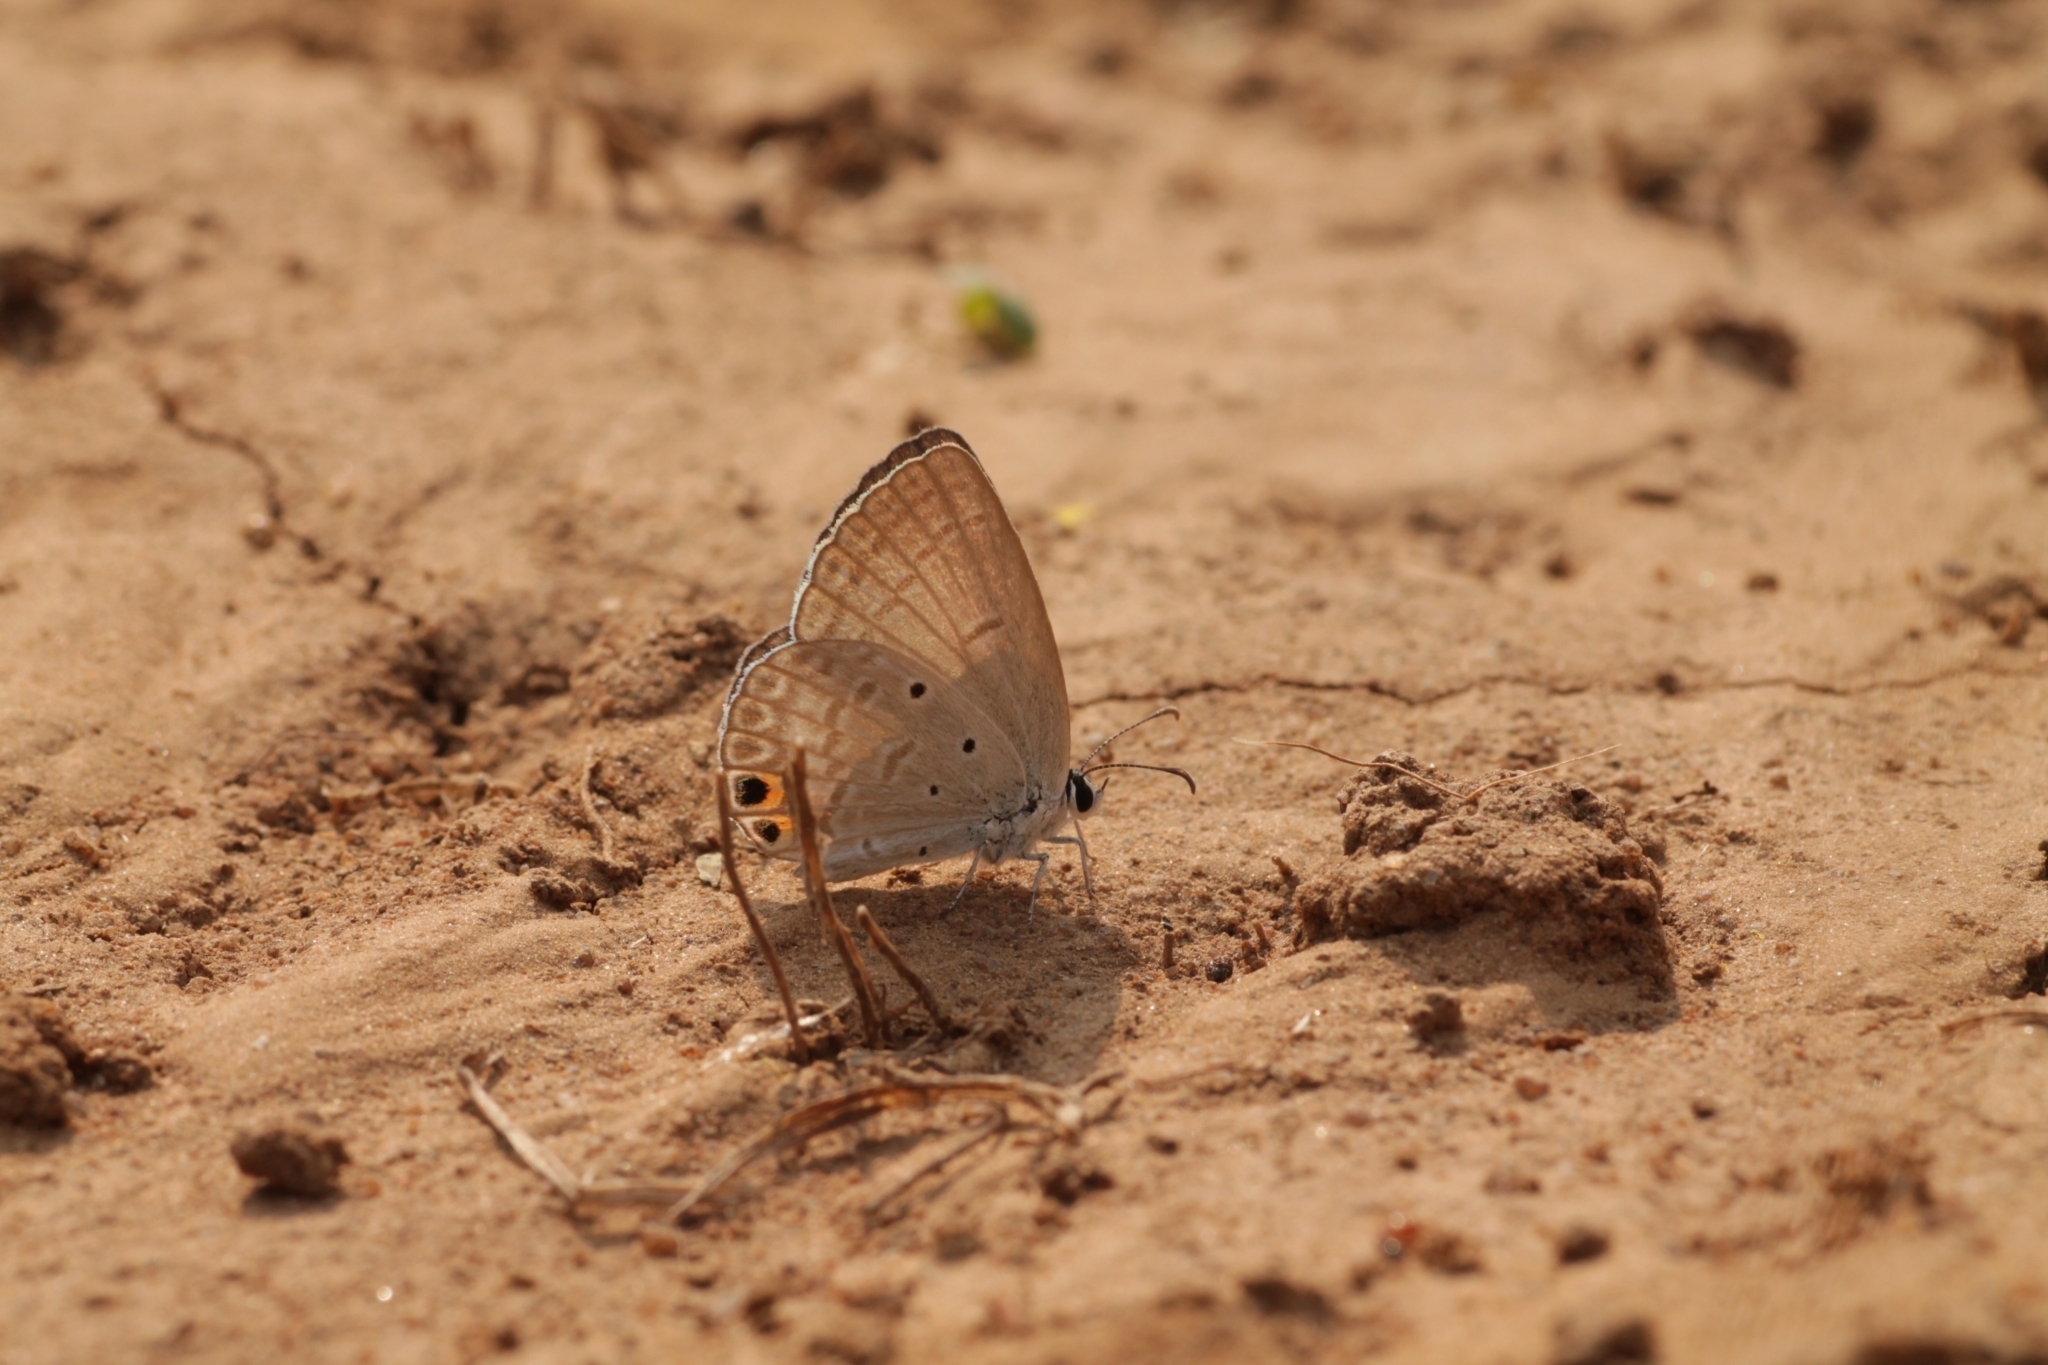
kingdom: Animalia
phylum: Arthropoda
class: Insecta
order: Lepidoptera
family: Lycaenidae
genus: Euchrysops
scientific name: Euchrysops cnejus
